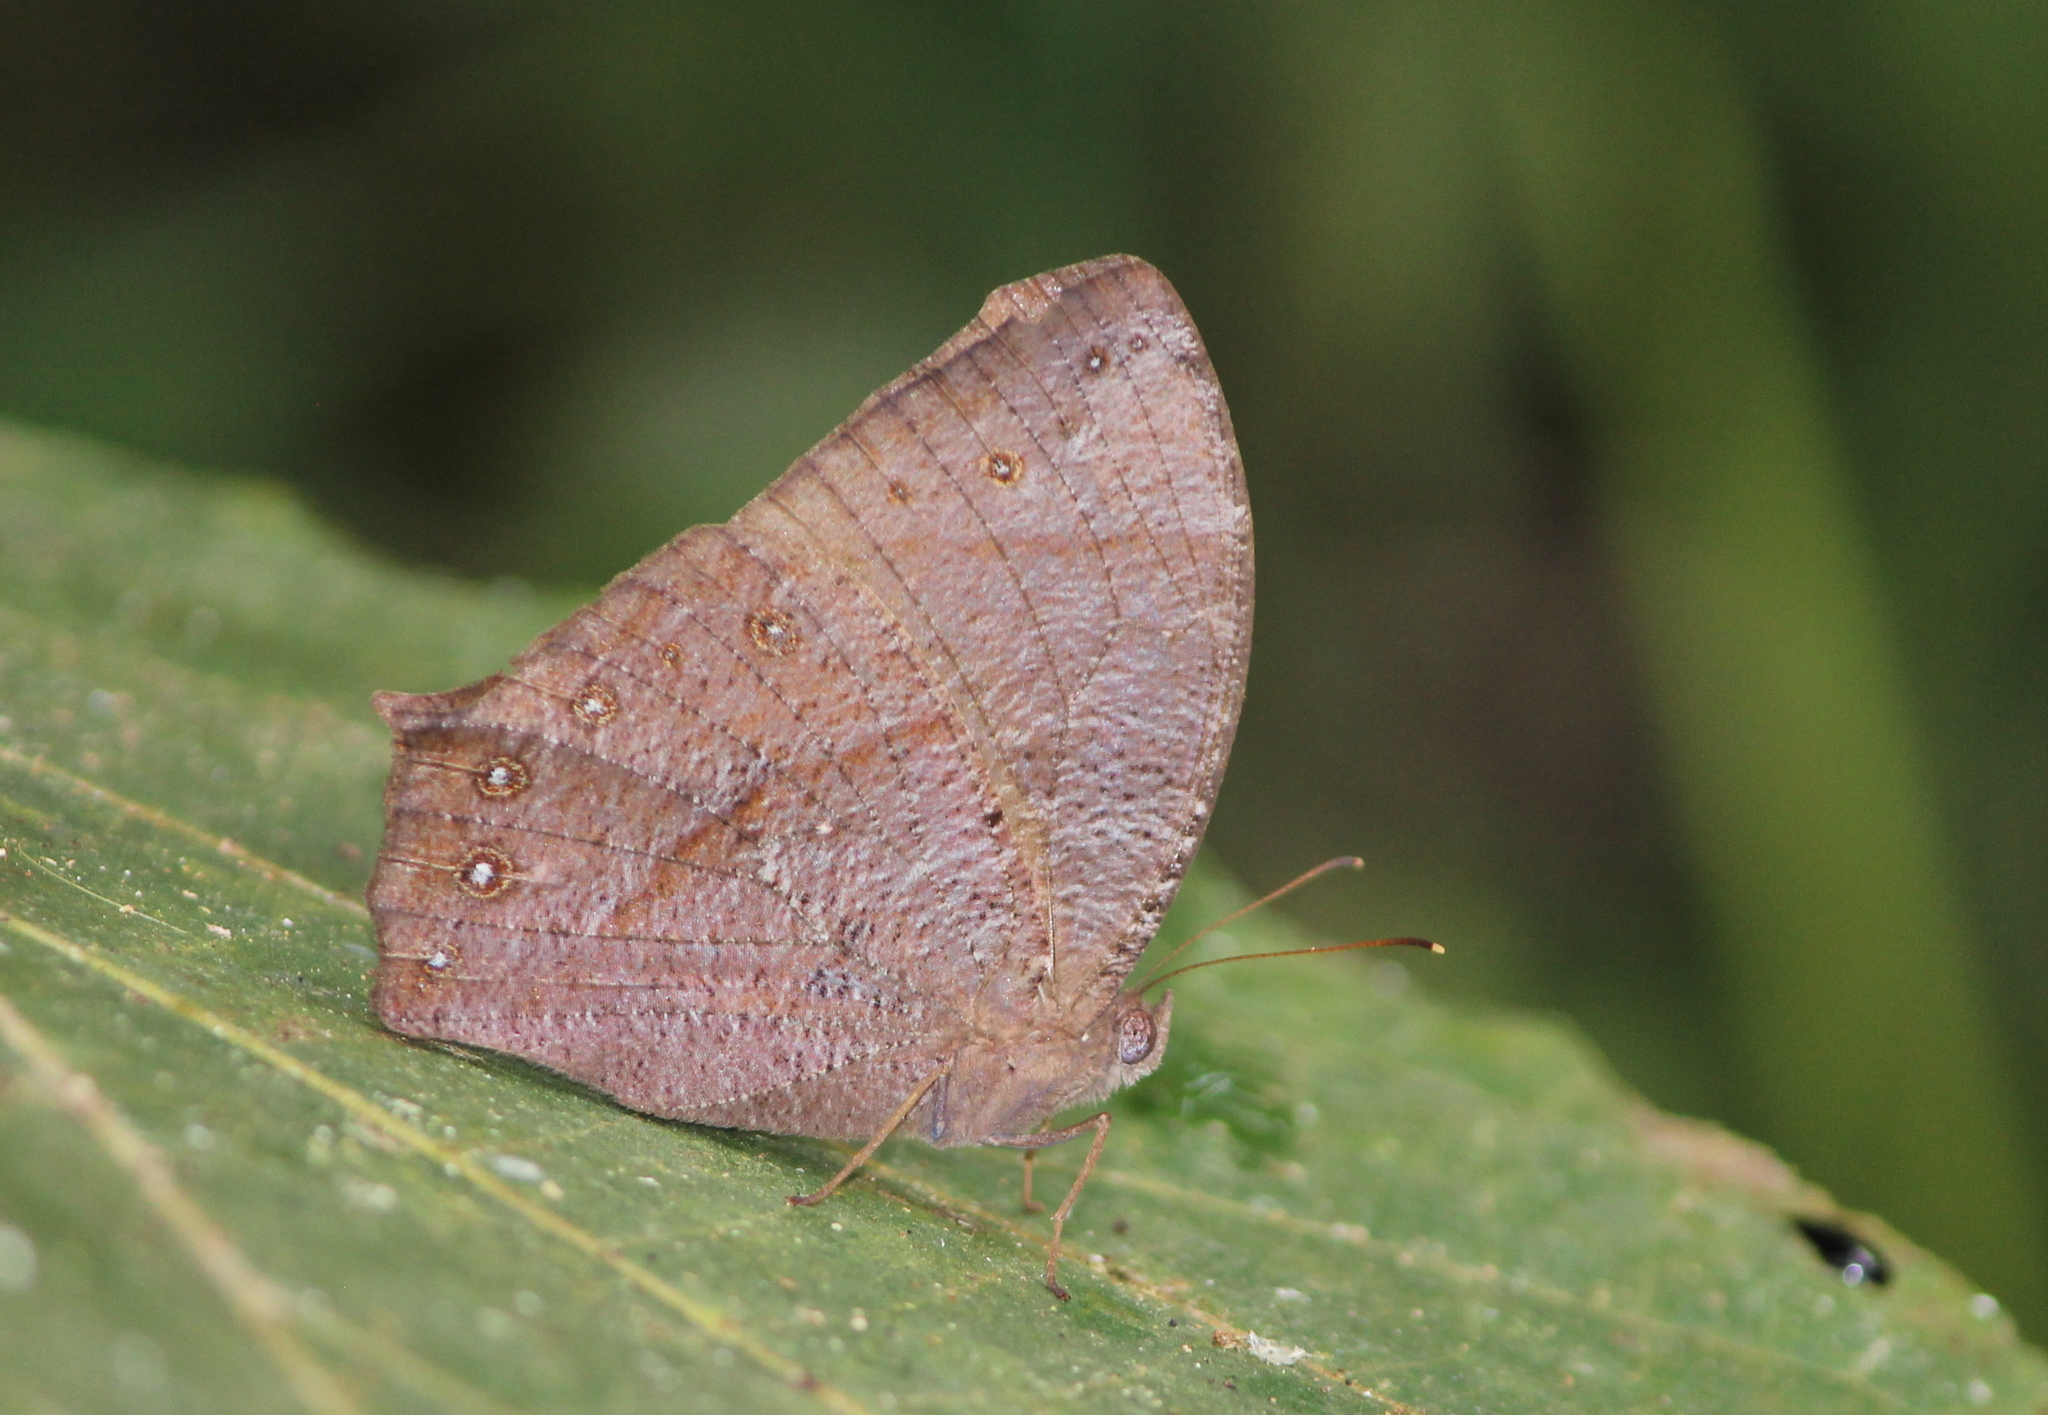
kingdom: Animalia
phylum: Arthropoda
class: Insecta
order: Lepidoptera
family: Nymphalidae
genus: Melanitis
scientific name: Melanitis phedima
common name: Dark evening brown
